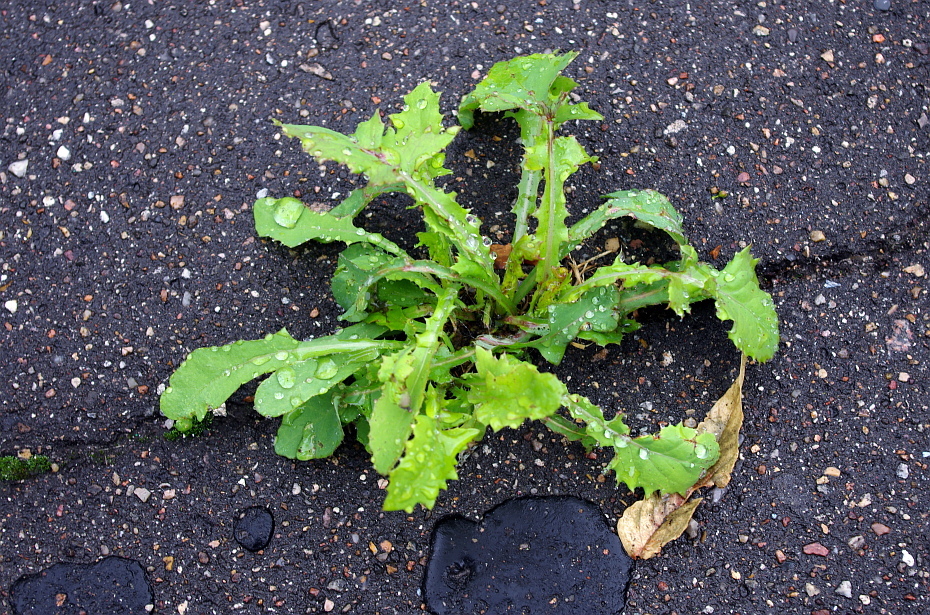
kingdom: Plantae
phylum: Tracheophyta
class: Magnoliopsida
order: Asterales
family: Asteraceae
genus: Sonchus
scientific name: Sonchus oleraceus
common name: Common sowthistle
